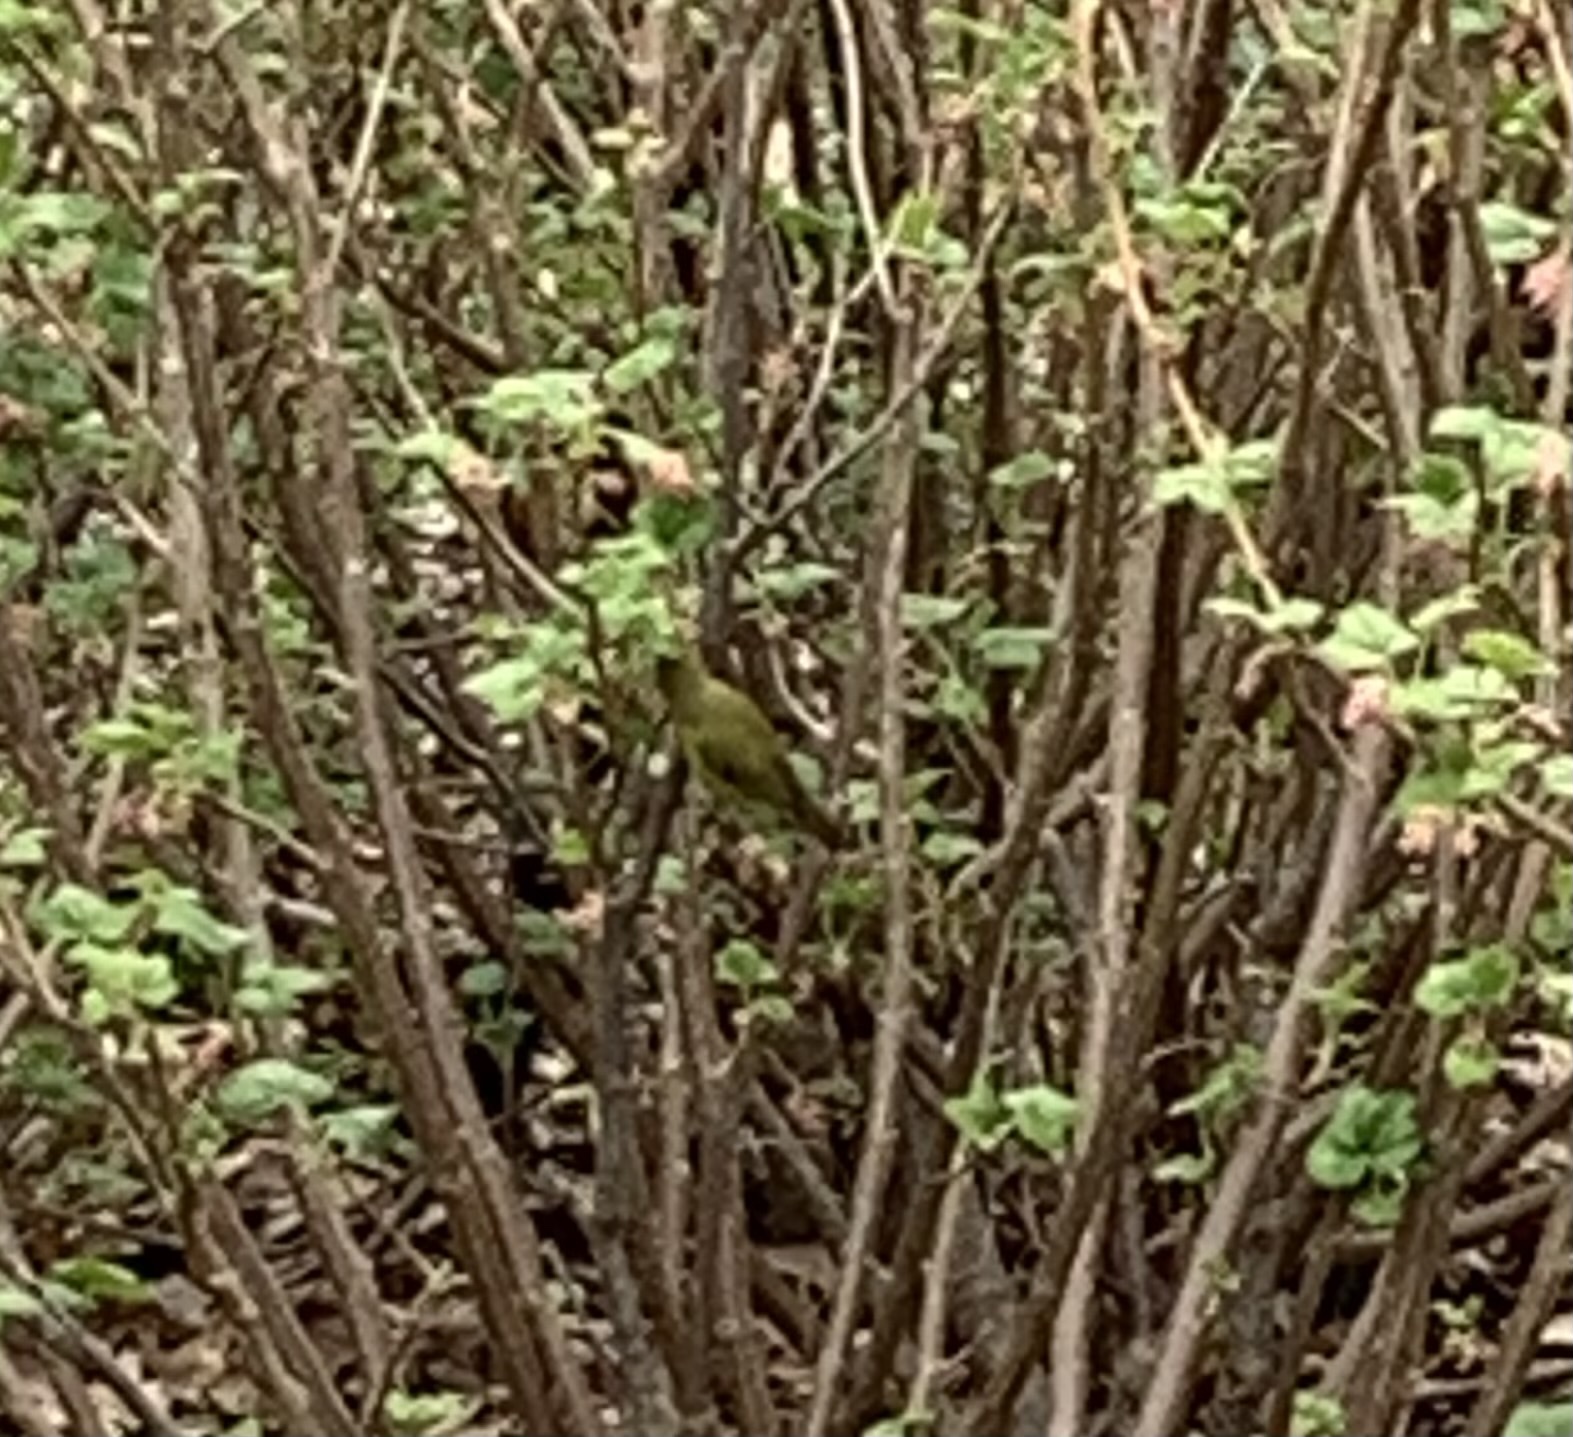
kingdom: Animalia
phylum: Chordata
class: Aves
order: Passeriformes
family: Parulidae
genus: Leiothlypis
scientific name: Leiothlypis celata
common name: Orange-crowned warbler
